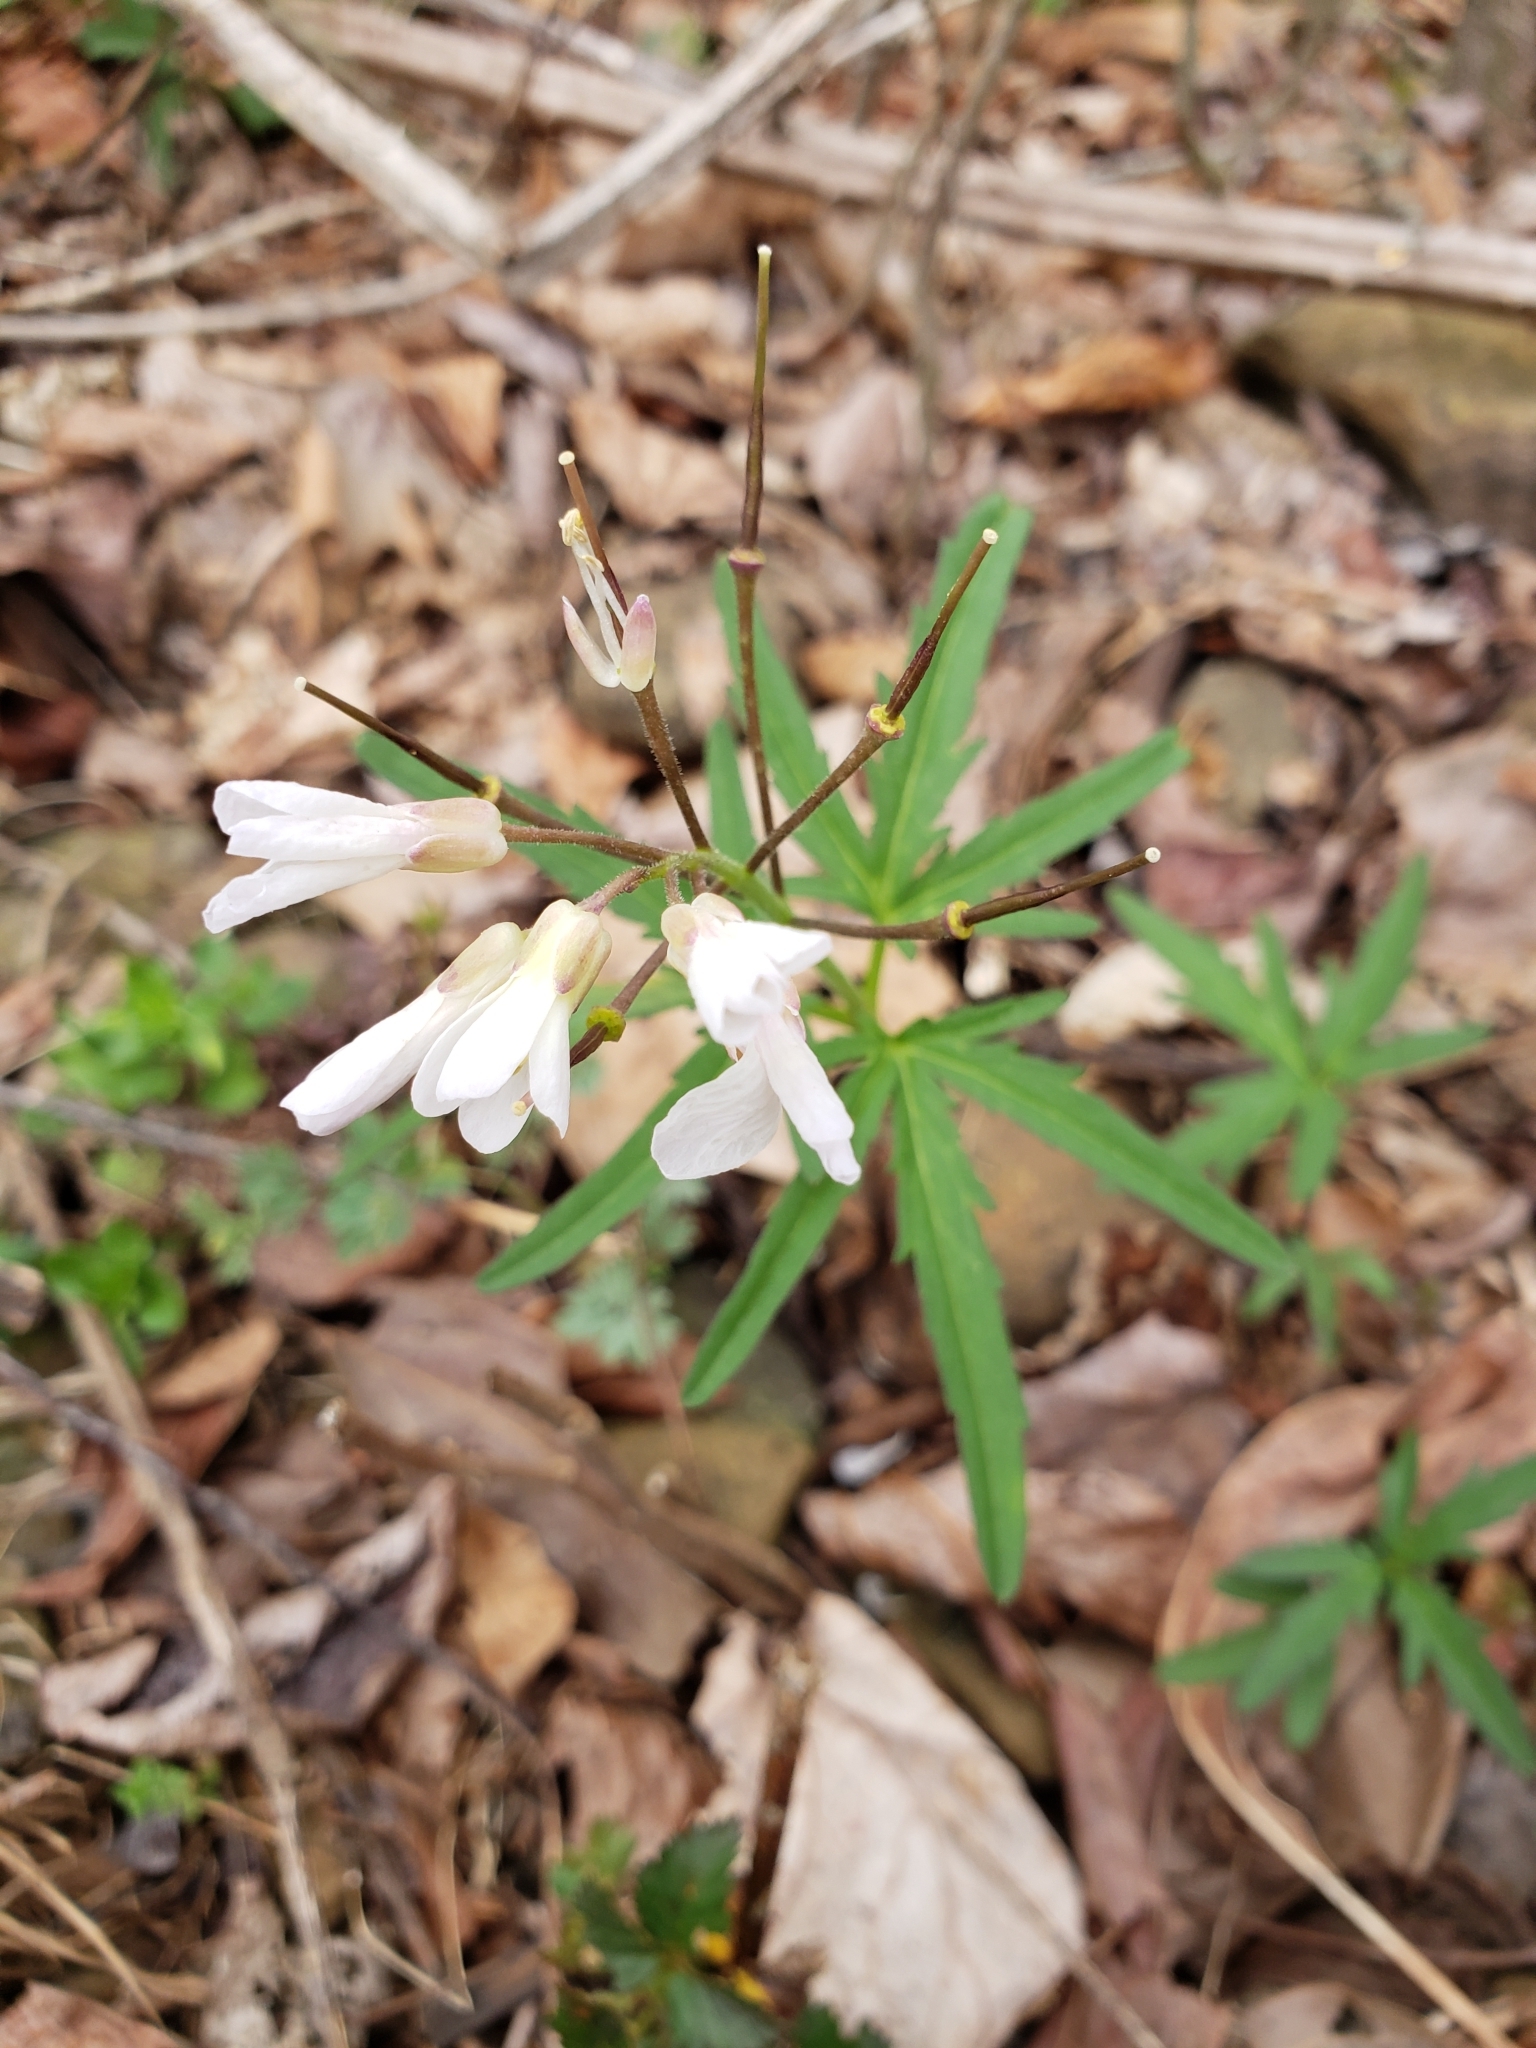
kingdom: Plantae
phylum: Tracheophyta
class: Magnoliopsida
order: Brassicales
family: Brassicaceae
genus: Cardamine
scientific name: Cardamine concatenata
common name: Cut-leaf toothcup
